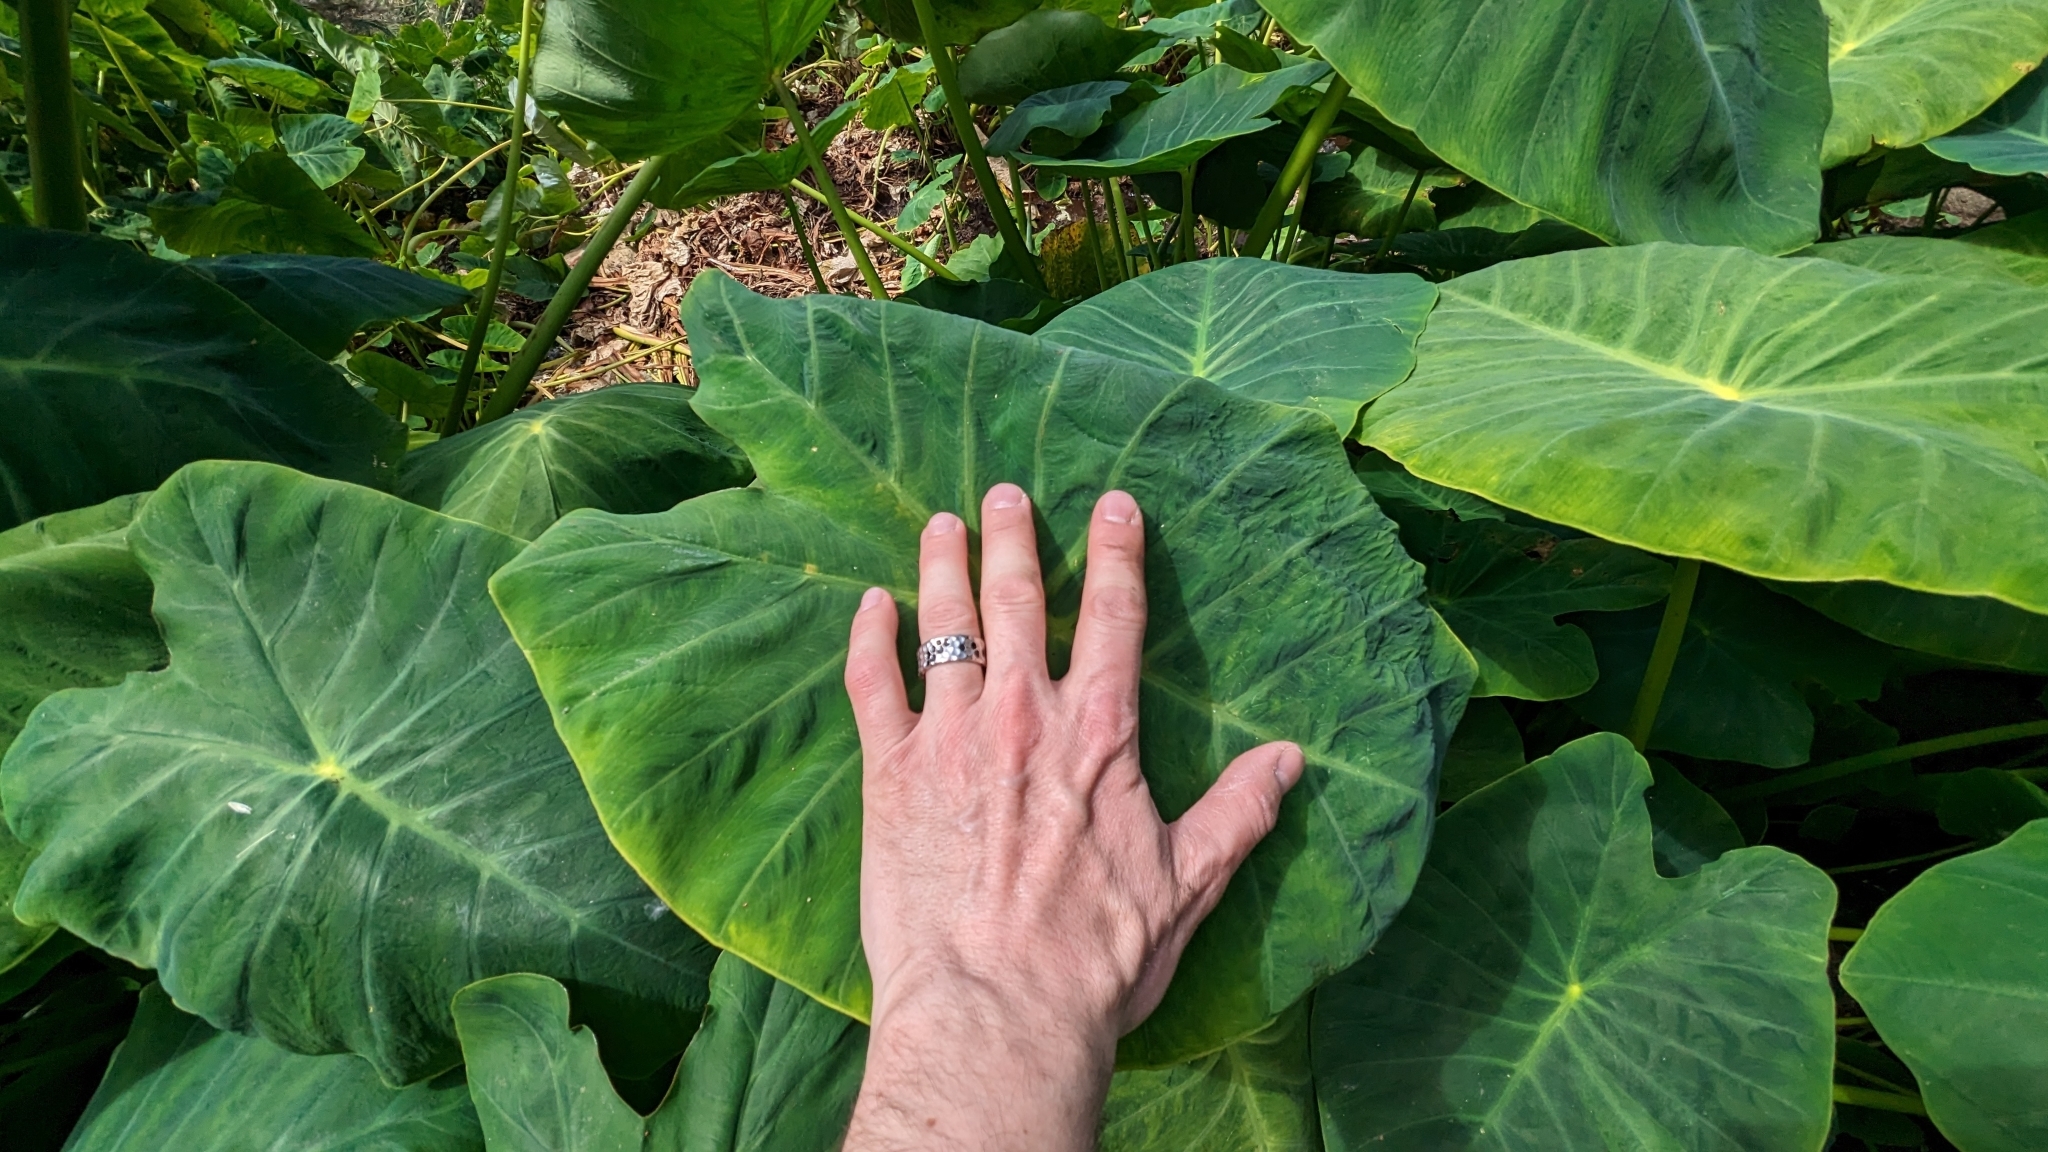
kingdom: Plantae
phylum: Tracheophyta
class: Liliopsida
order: Alismatales
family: Araceae
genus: Colocasia
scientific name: Colocasia esculenta
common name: Taro
